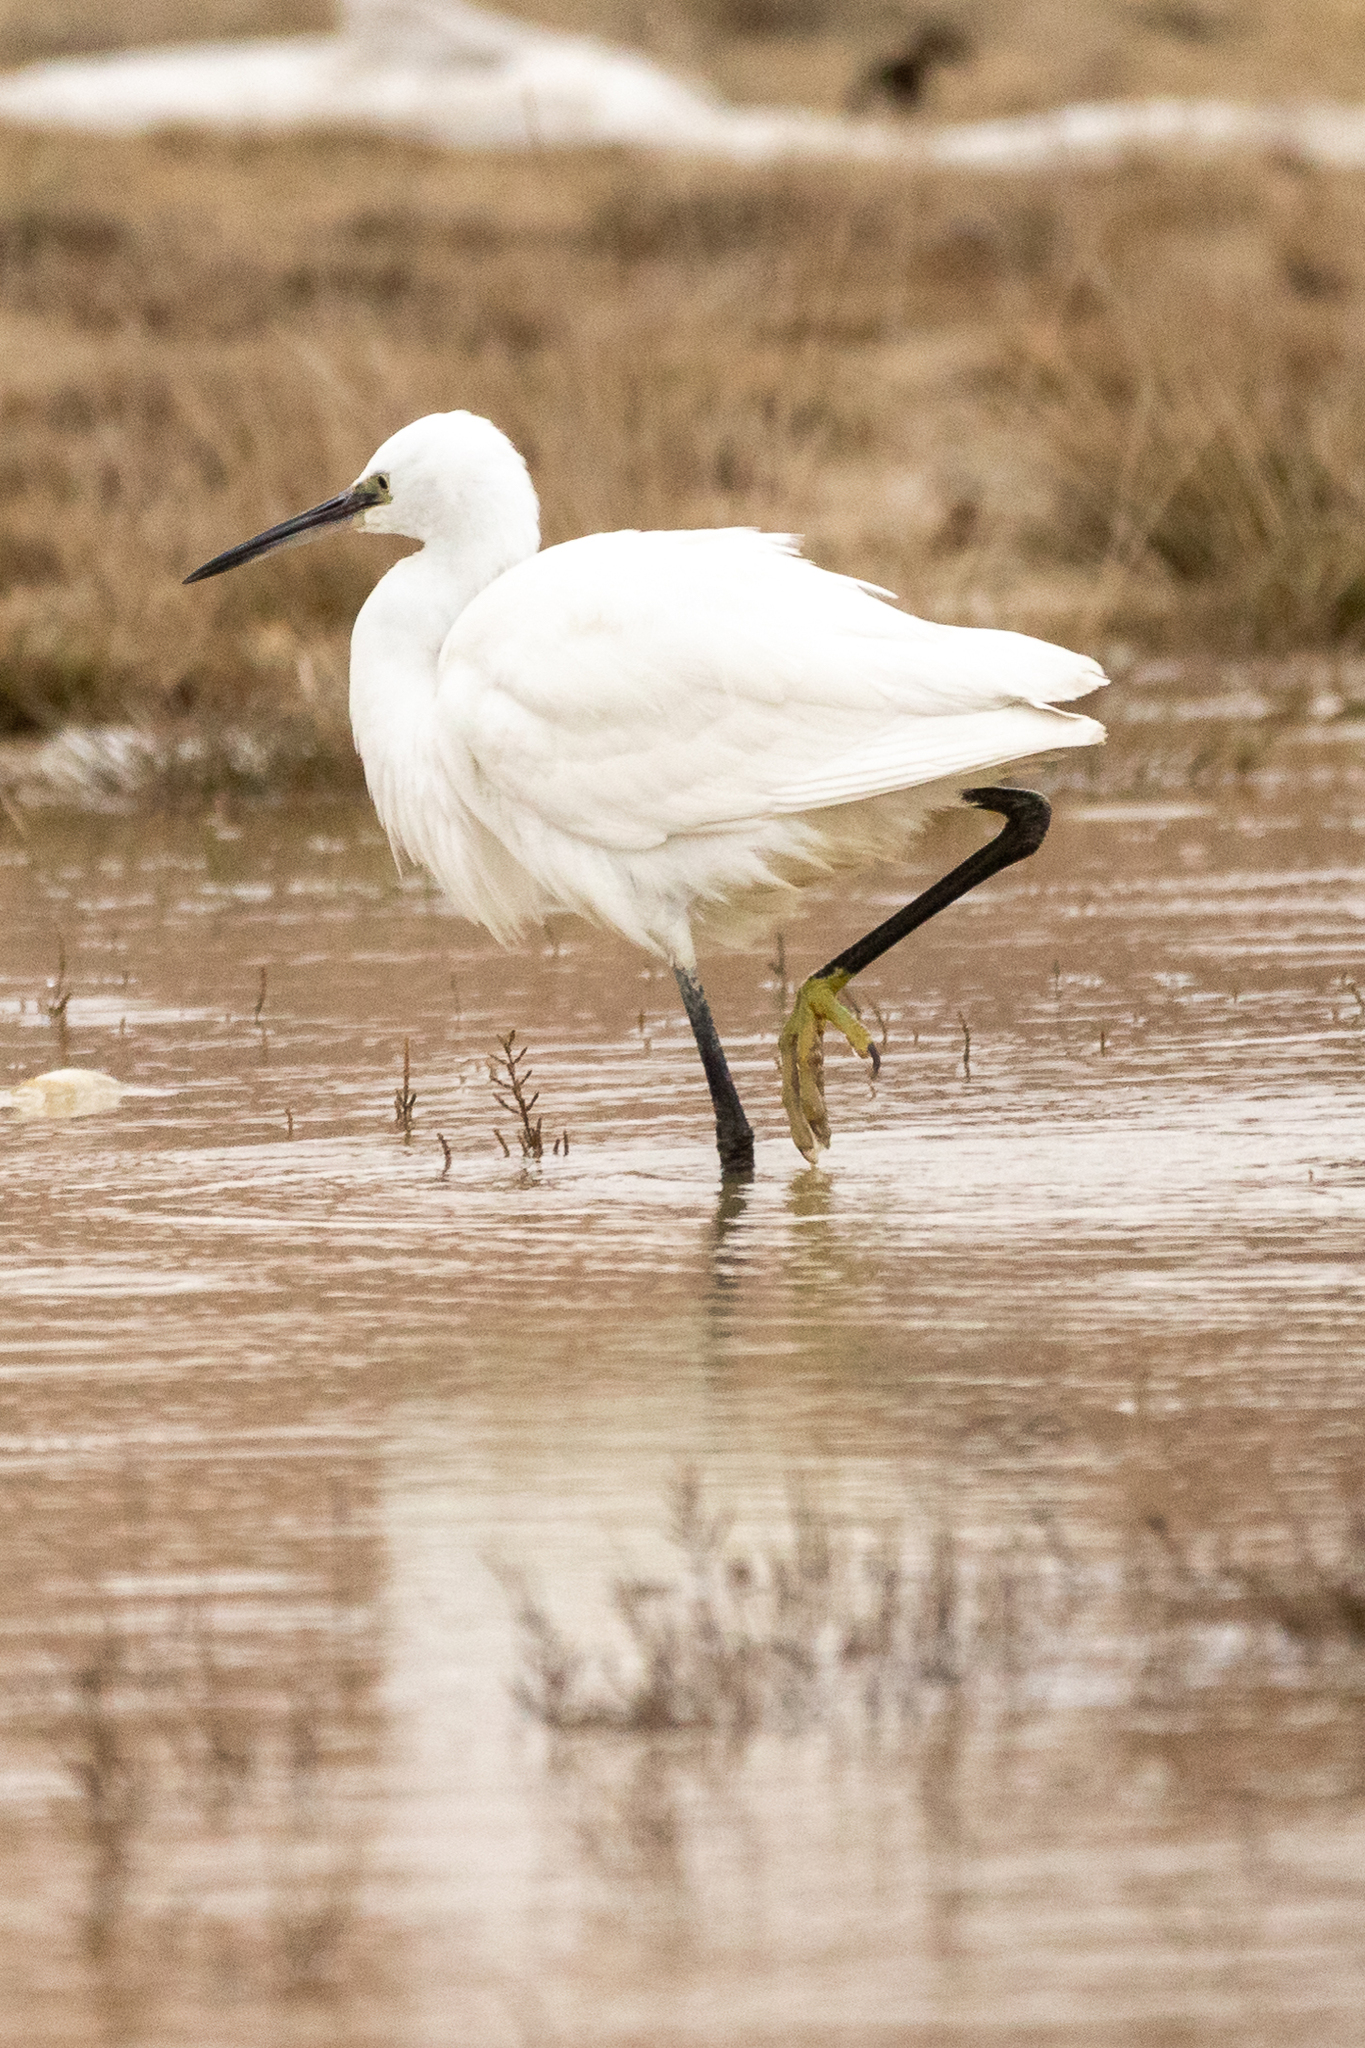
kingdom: Animalia
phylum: Chordata
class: Aves
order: Pelecaniformes
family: Ardeidae
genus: Egretta
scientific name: Egretta garzetta
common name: Little egret
